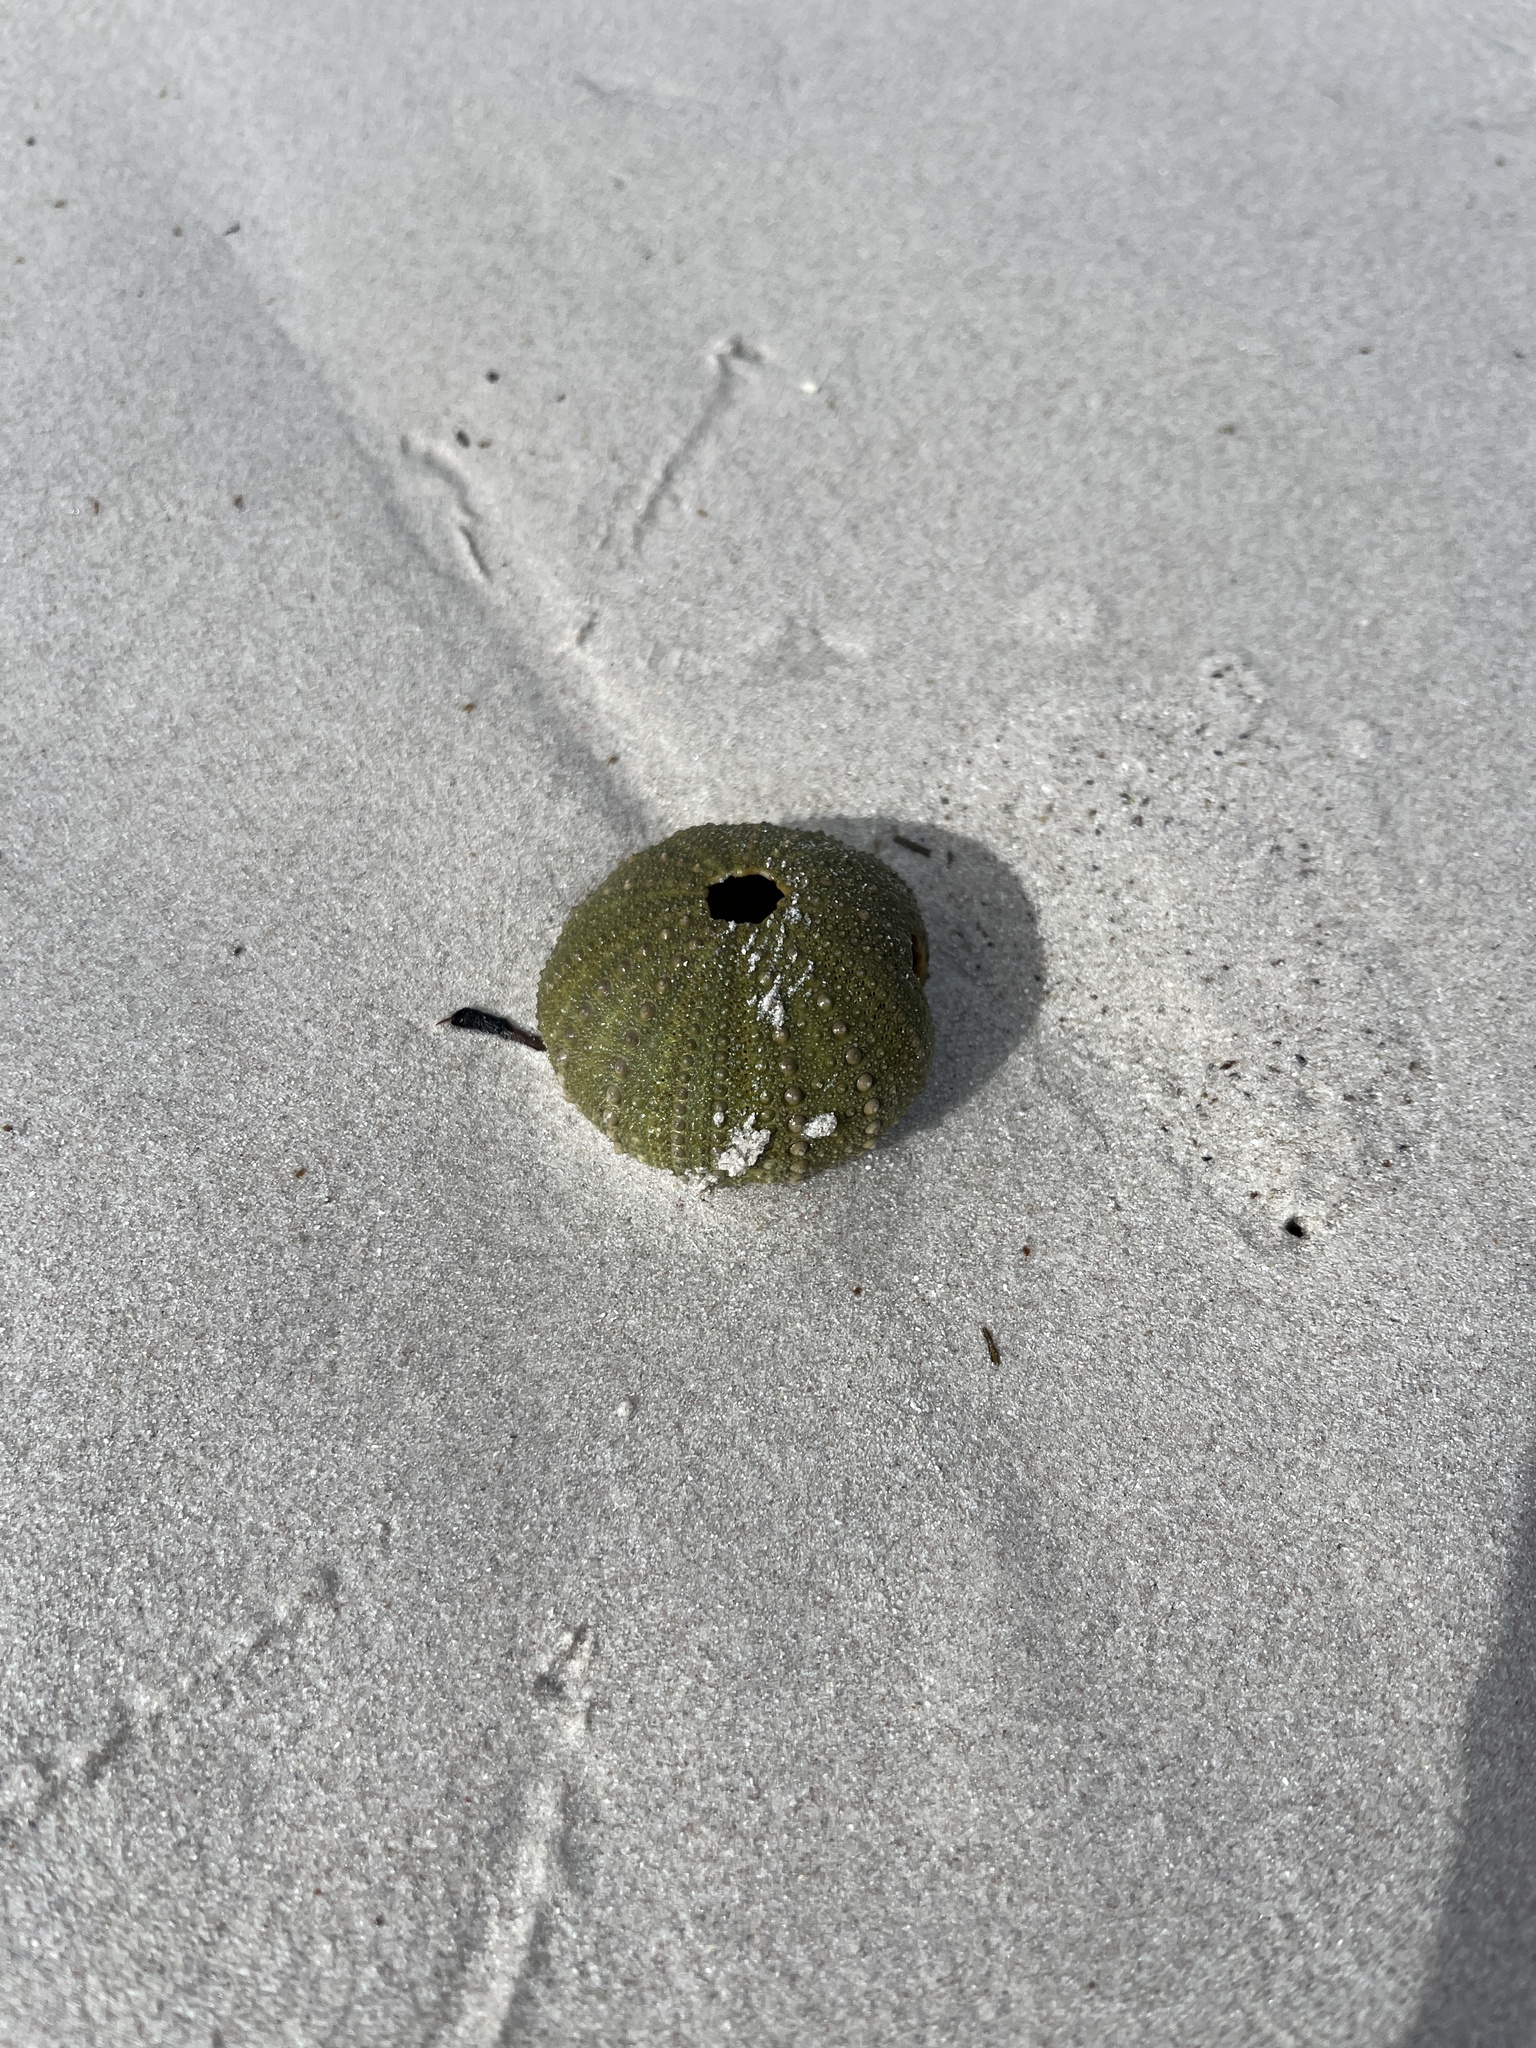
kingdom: Animalia
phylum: Echinodermata
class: Echinoidea
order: Camarodonta
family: Parechinidae
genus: Parechinus
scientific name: Parechinus angulosus
